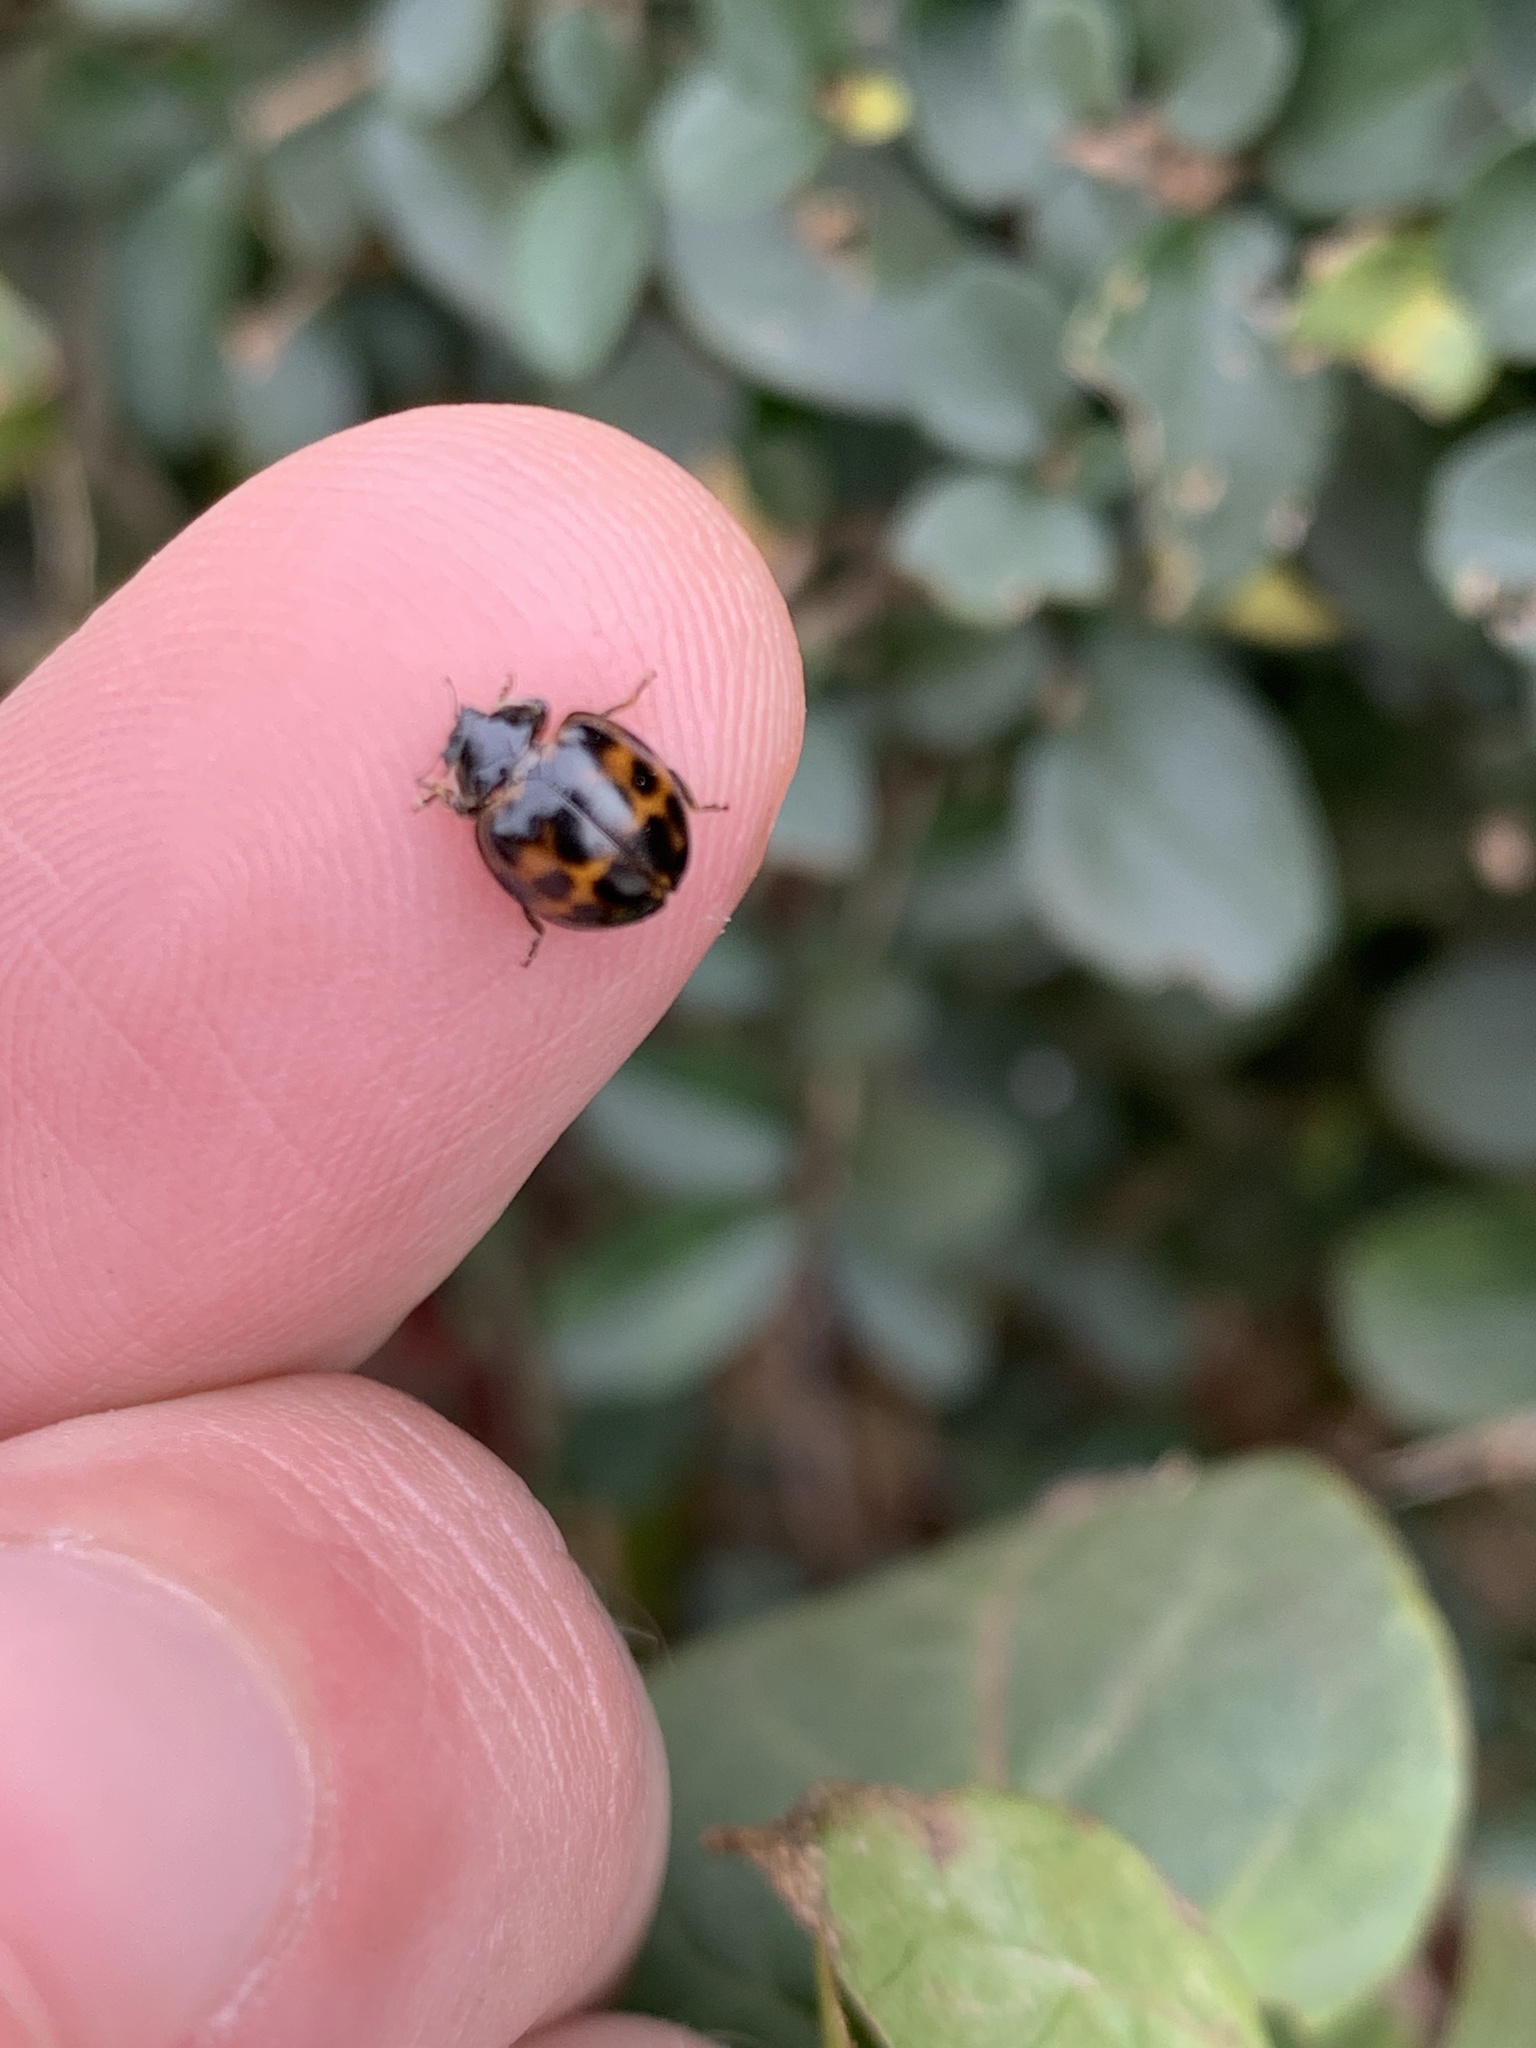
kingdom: Animalia
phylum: Arthropoda
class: Insecta
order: Coleoptera
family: Coccinellidae
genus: Harmonia
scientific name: Harmonia axyridis
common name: Harlequin ladybird
